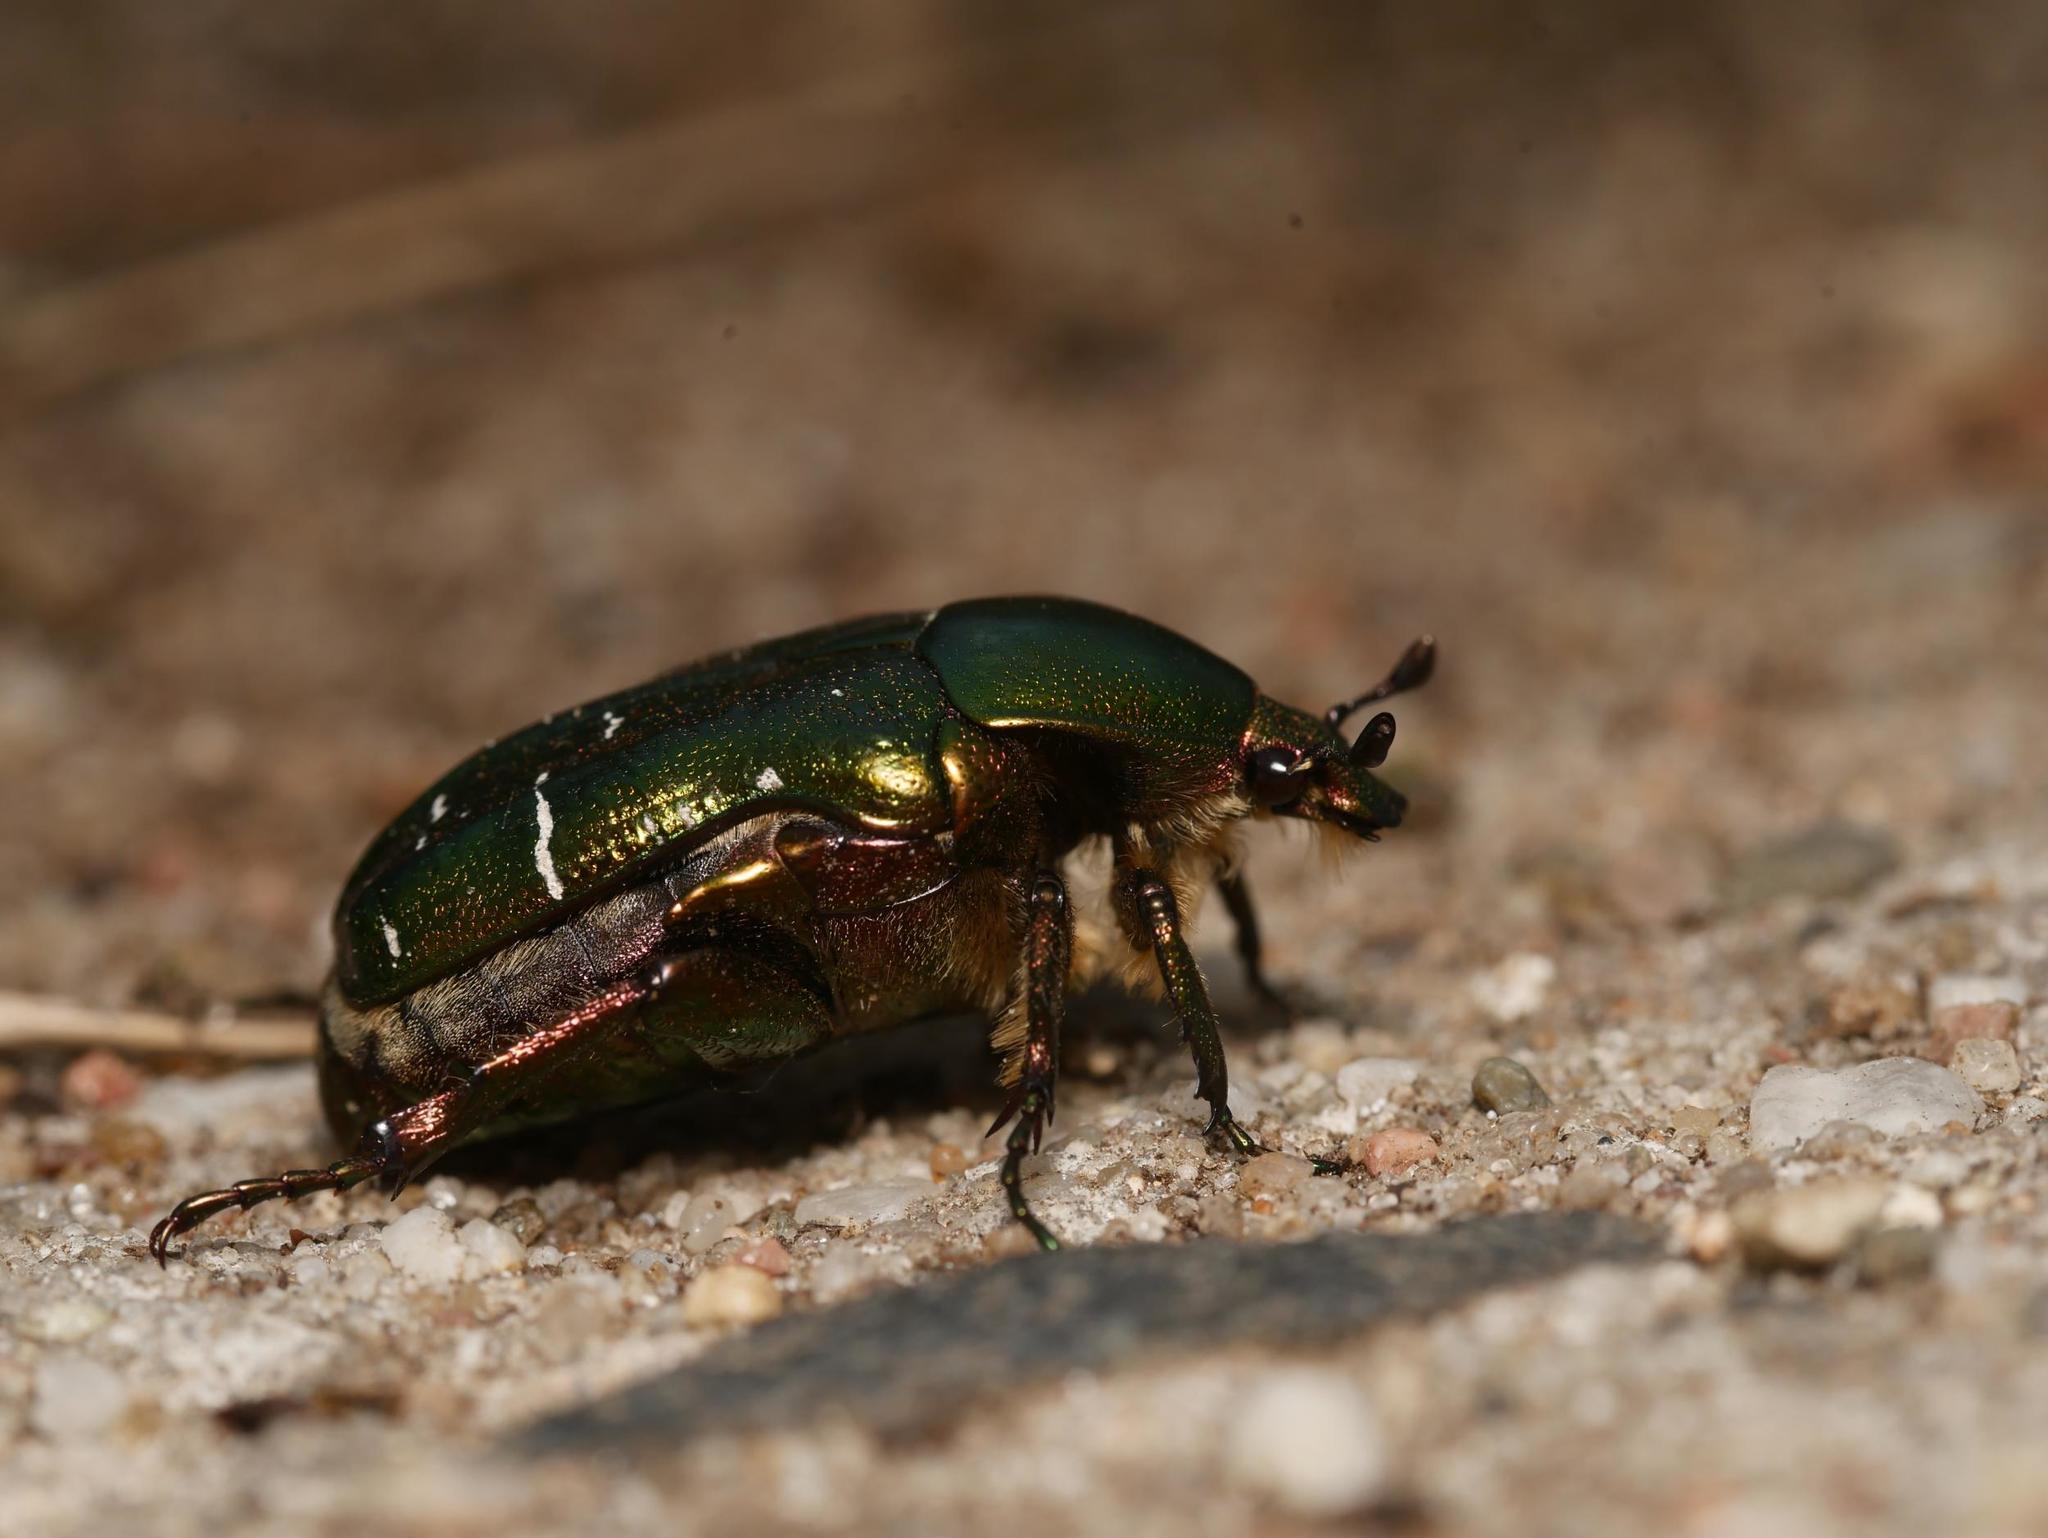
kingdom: Animalia
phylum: Arthropoda
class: Insecta
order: Coleoptera
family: Scarabaeidae
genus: Cetonia
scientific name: Cetonia aurata
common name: Rose chafer
